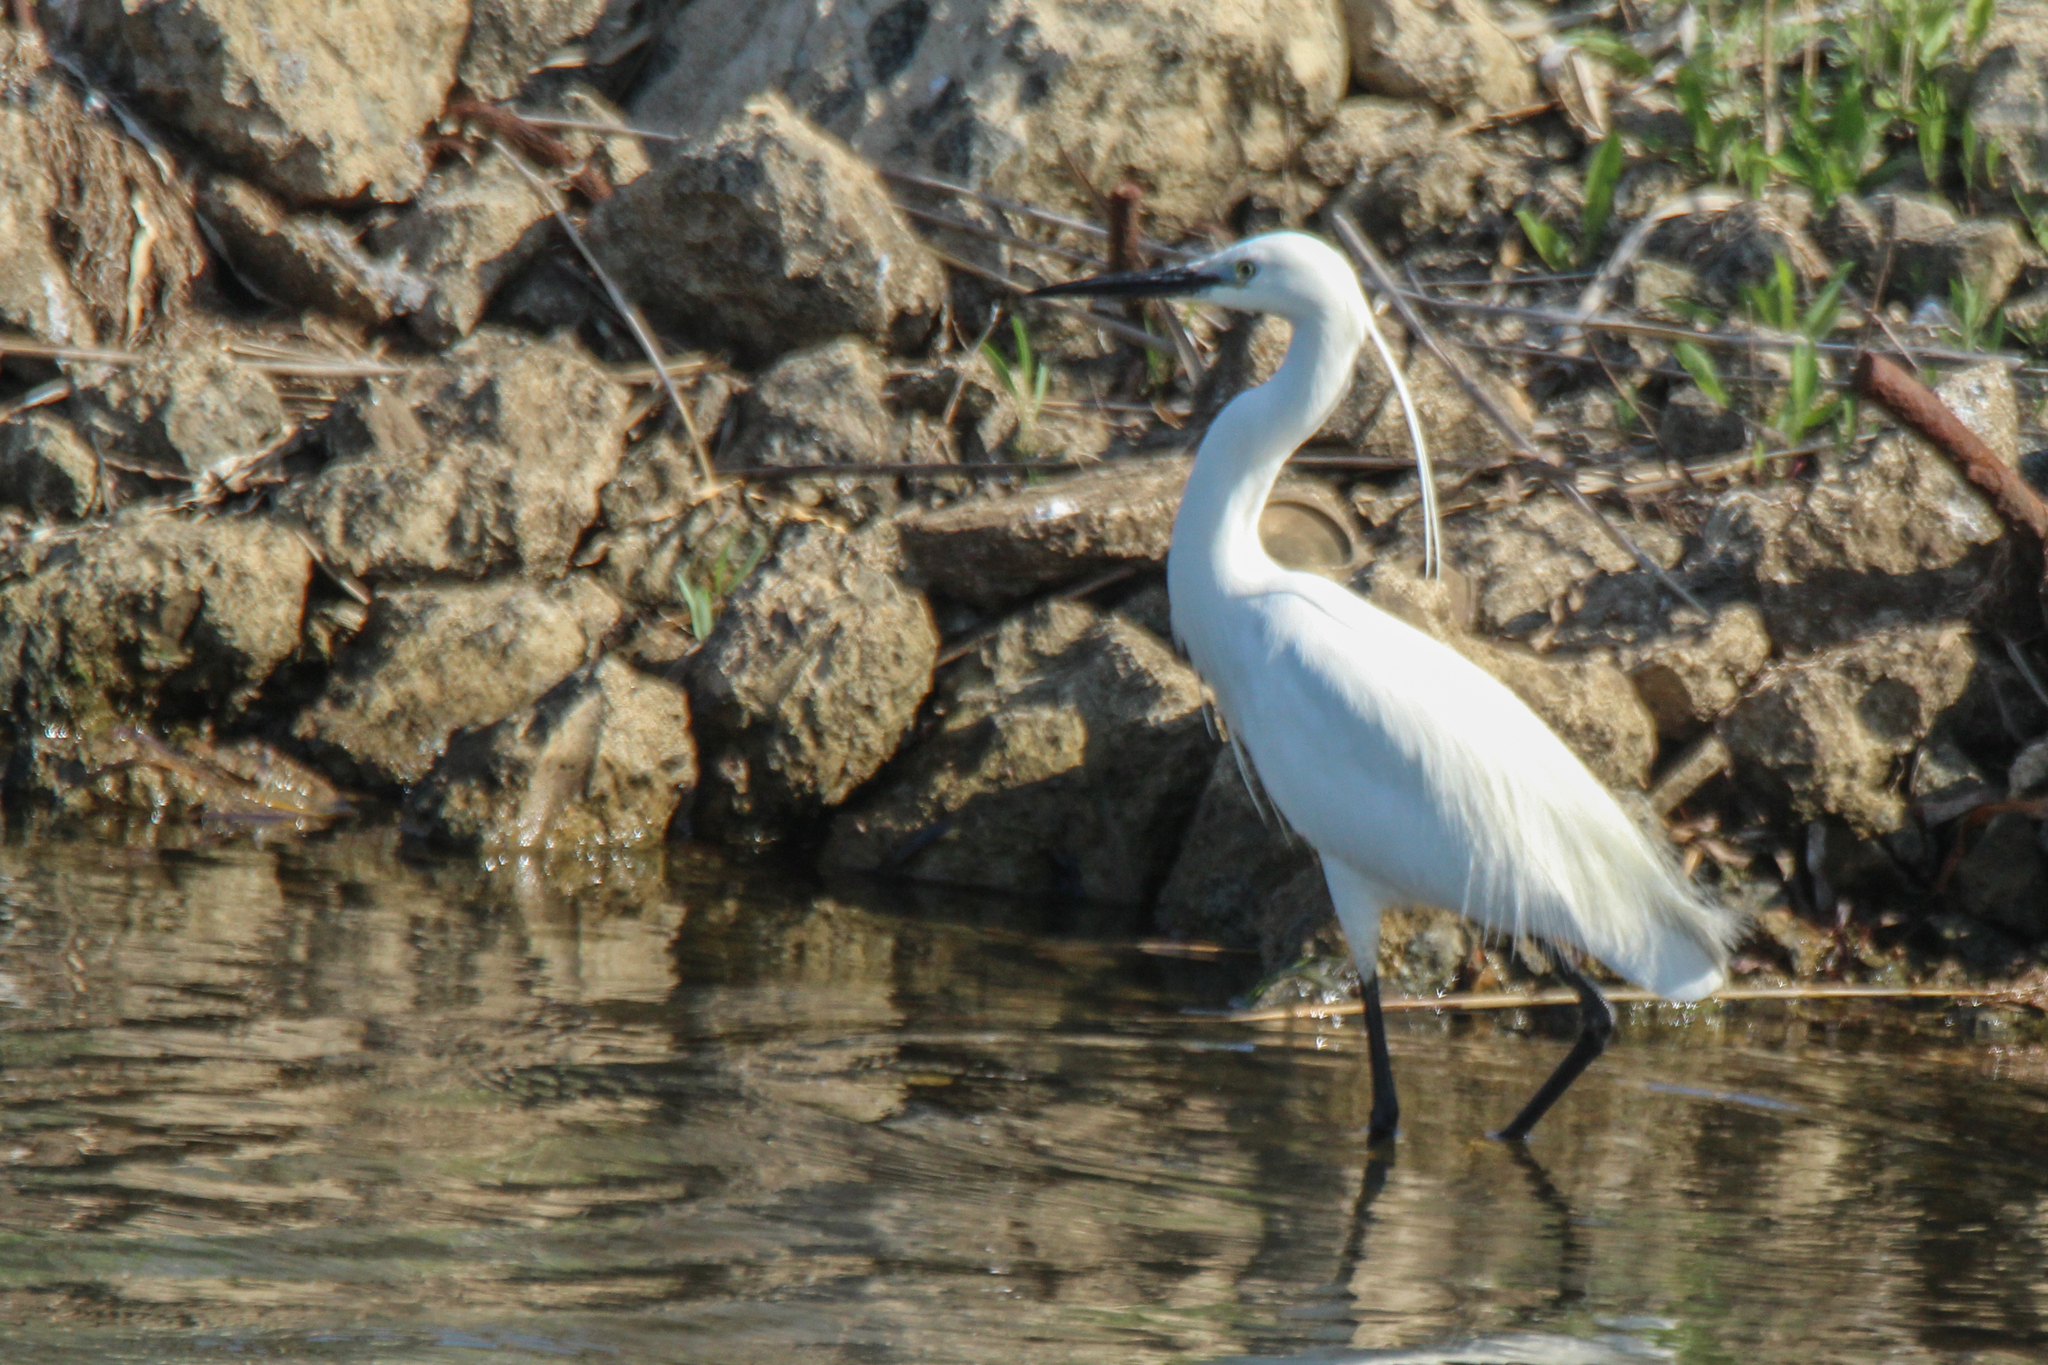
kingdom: Animalia
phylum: Chordata
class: Aves
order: Pelecaniformes
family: Ardeidae
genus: Egretta
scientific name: Egretta garzetta
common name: Little egret
